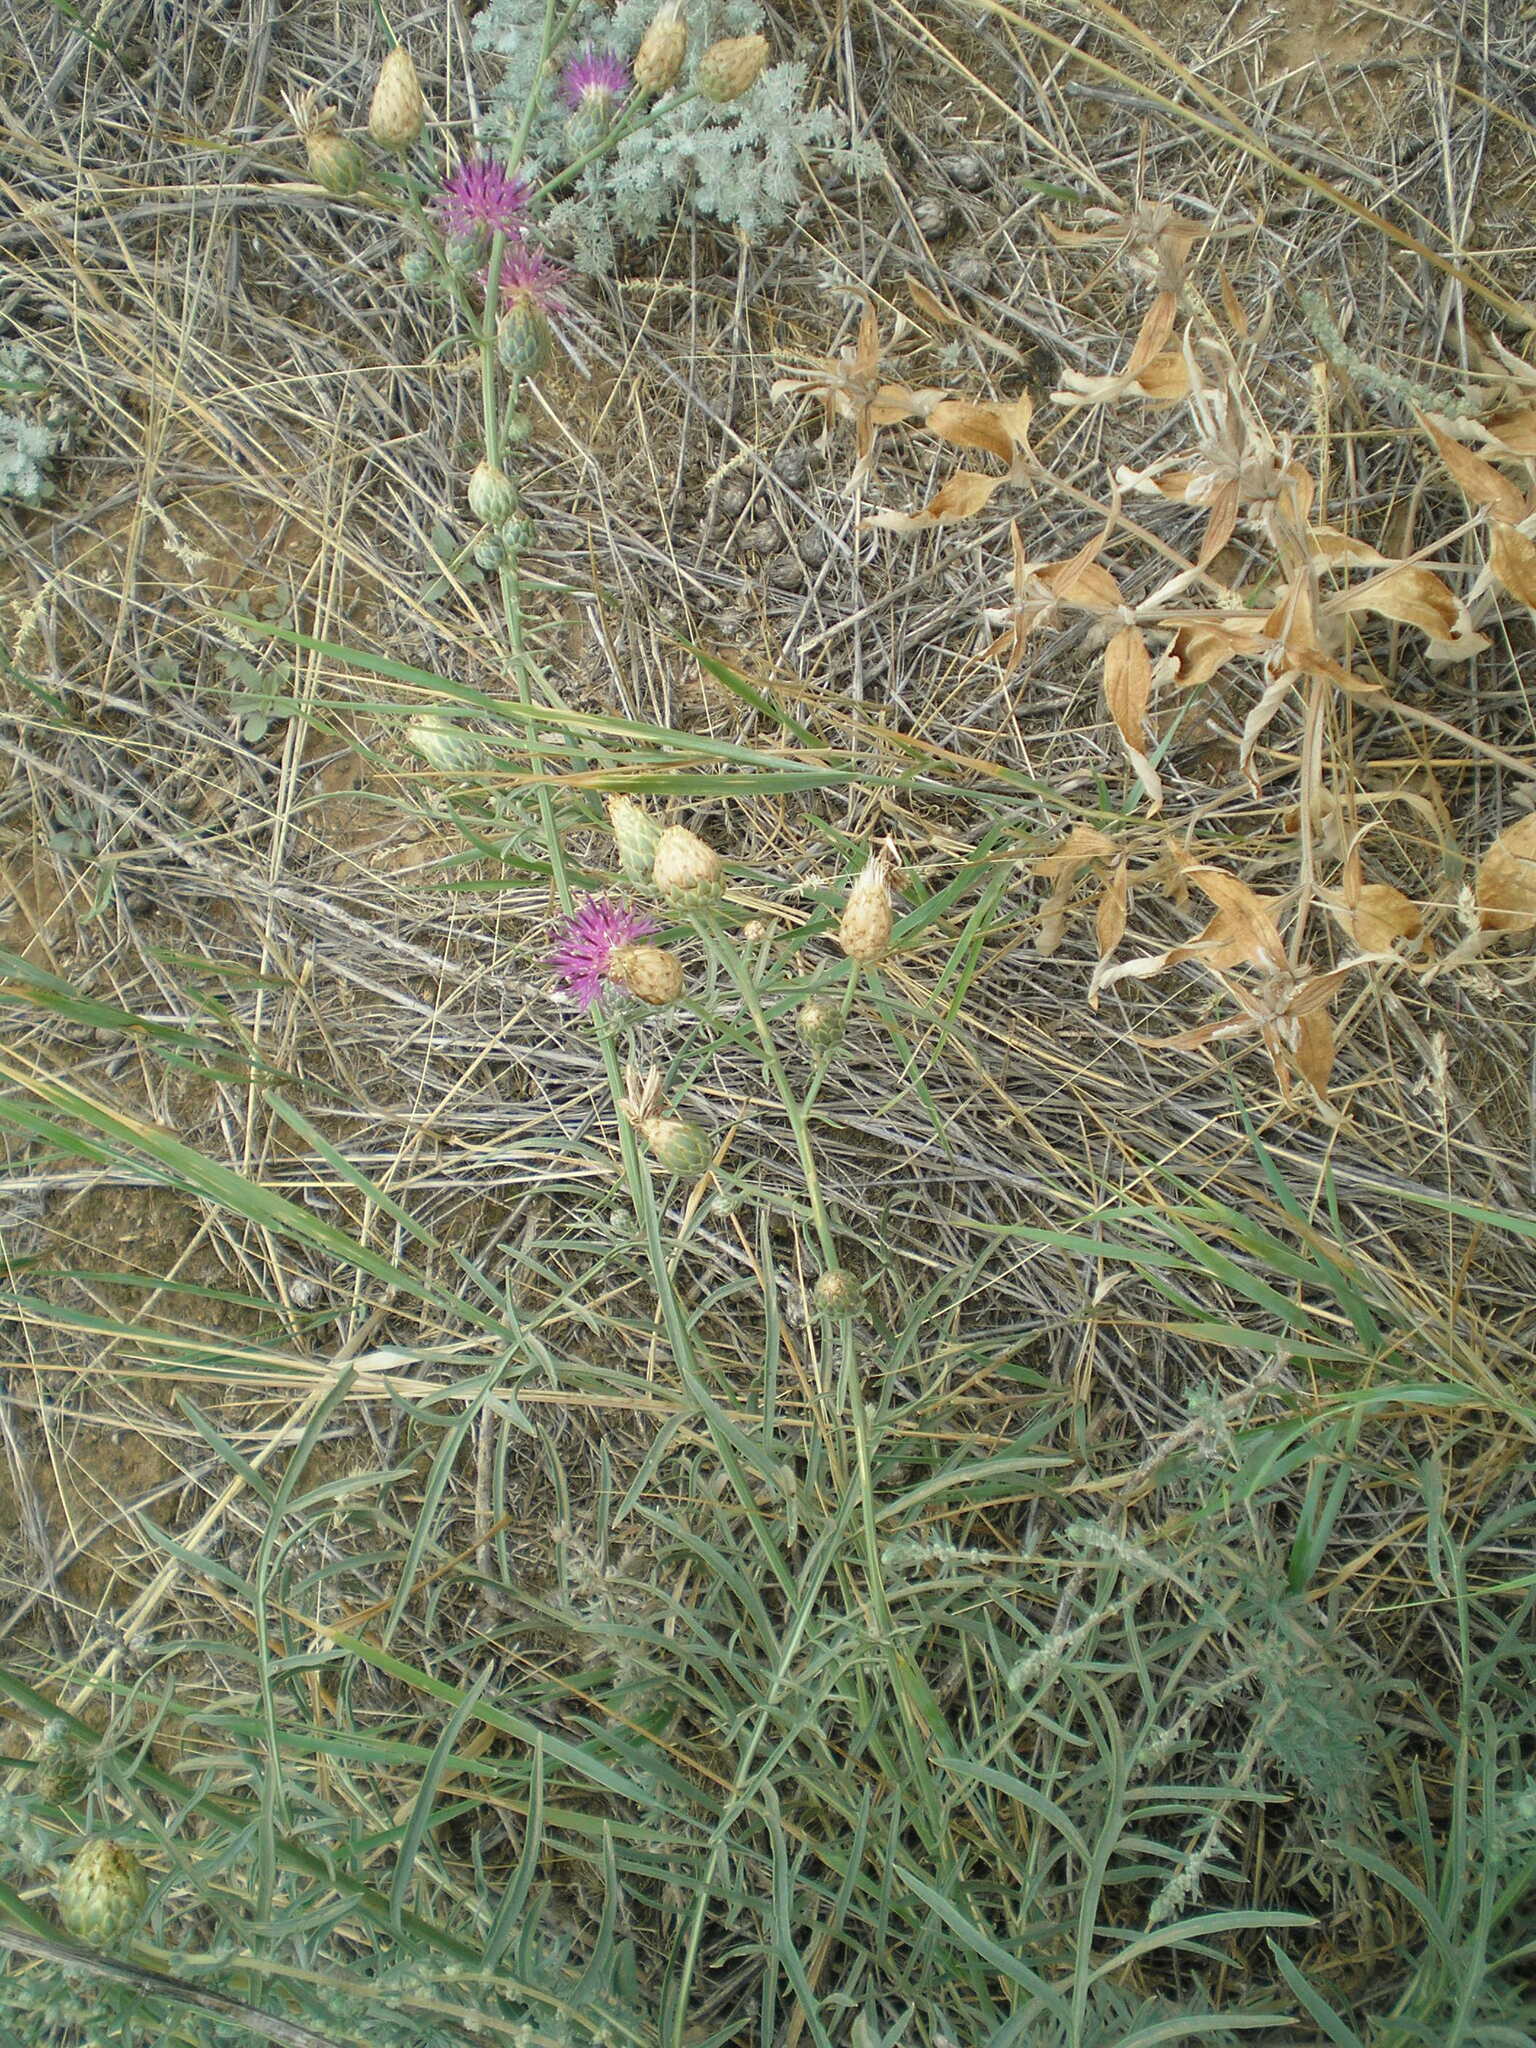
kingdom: Plantae
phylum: Tracheophyta
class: Magnoliopsida
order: Asterales
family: Asteraceae
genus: Centaurea
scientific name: Centaurea adpressa
